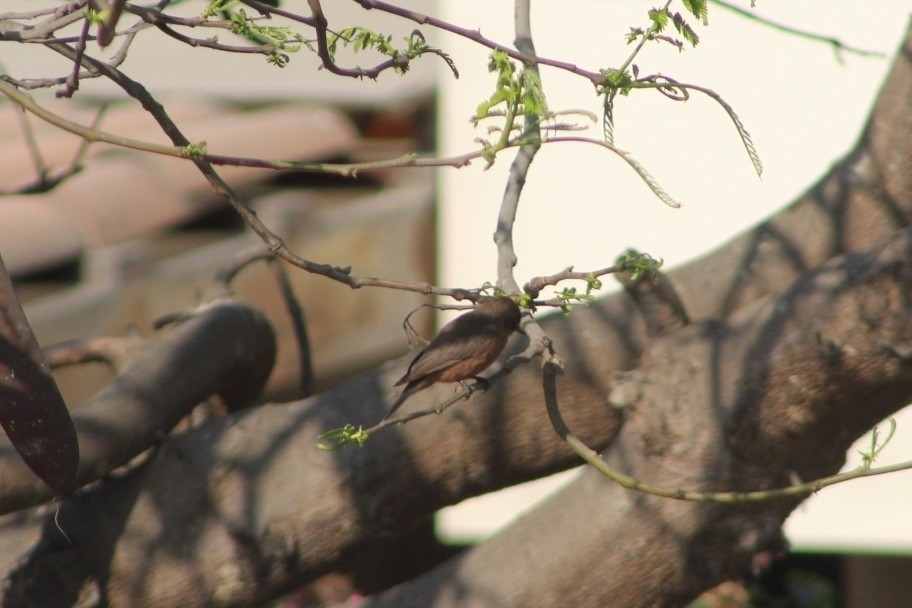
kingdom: Animalia
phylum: Chordata
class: Aves
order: Passeriformes
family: Tyrannidae
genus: Pyrocephalus
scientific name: Pyrocephalus rubinus
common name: Vermilion flycatcher
